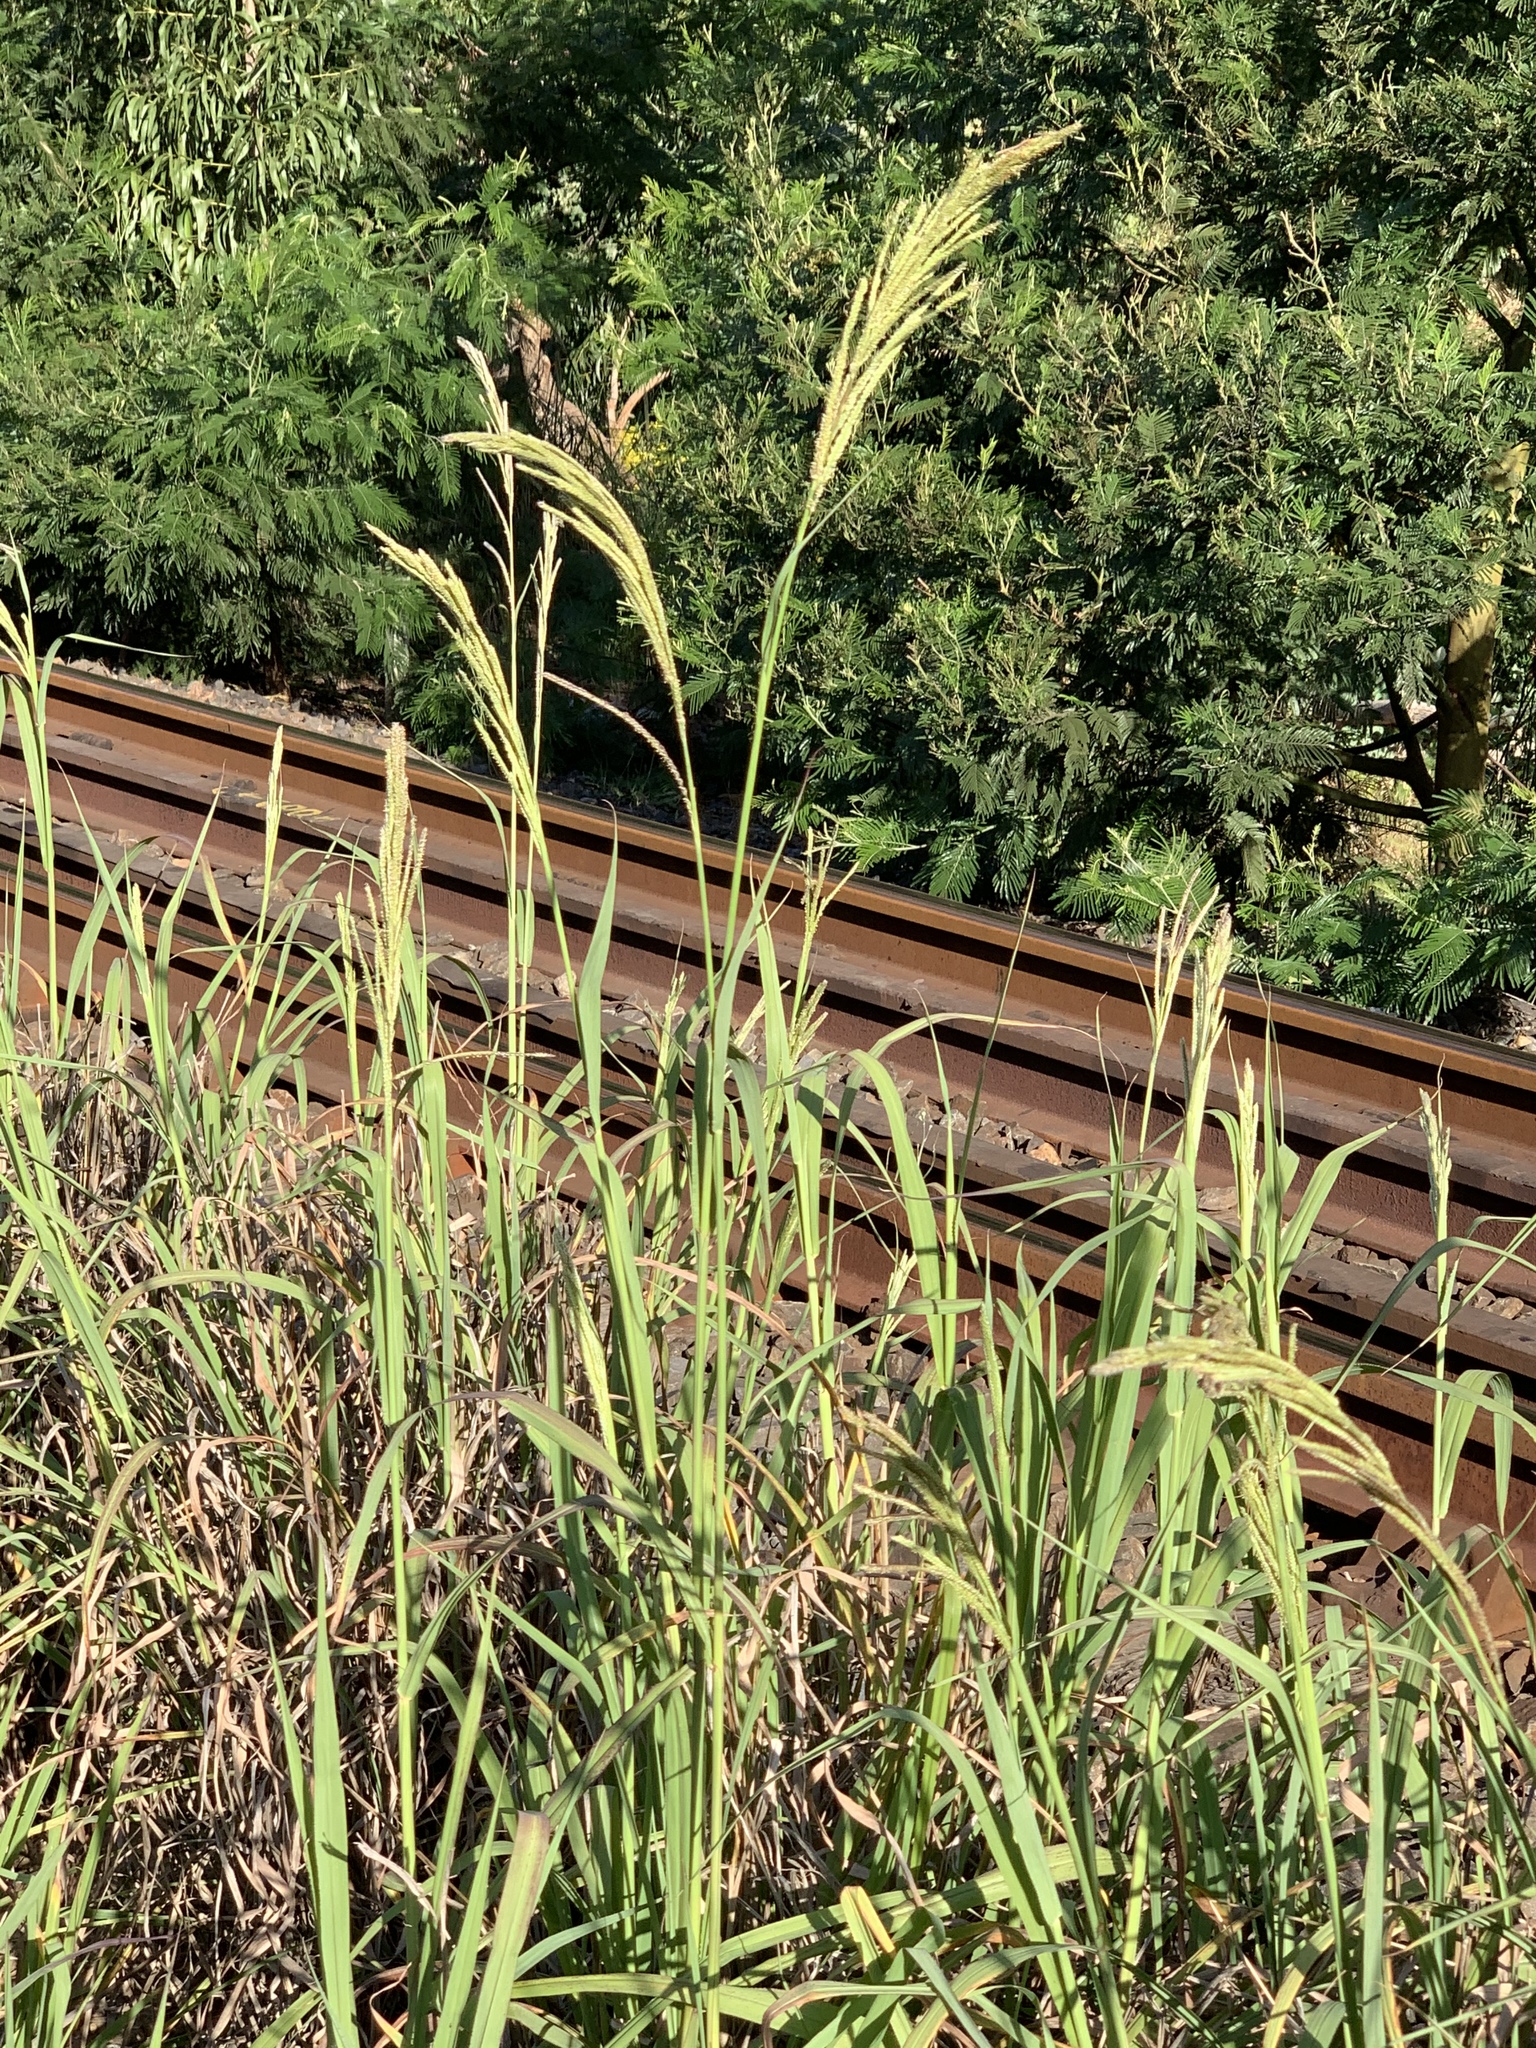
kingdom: Plantae
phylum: Tracheophyta
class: Liliopsida
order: Poales
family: Poaceae
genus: Paspalum
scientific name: Paspalum urvillei
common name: Vasey's grass
